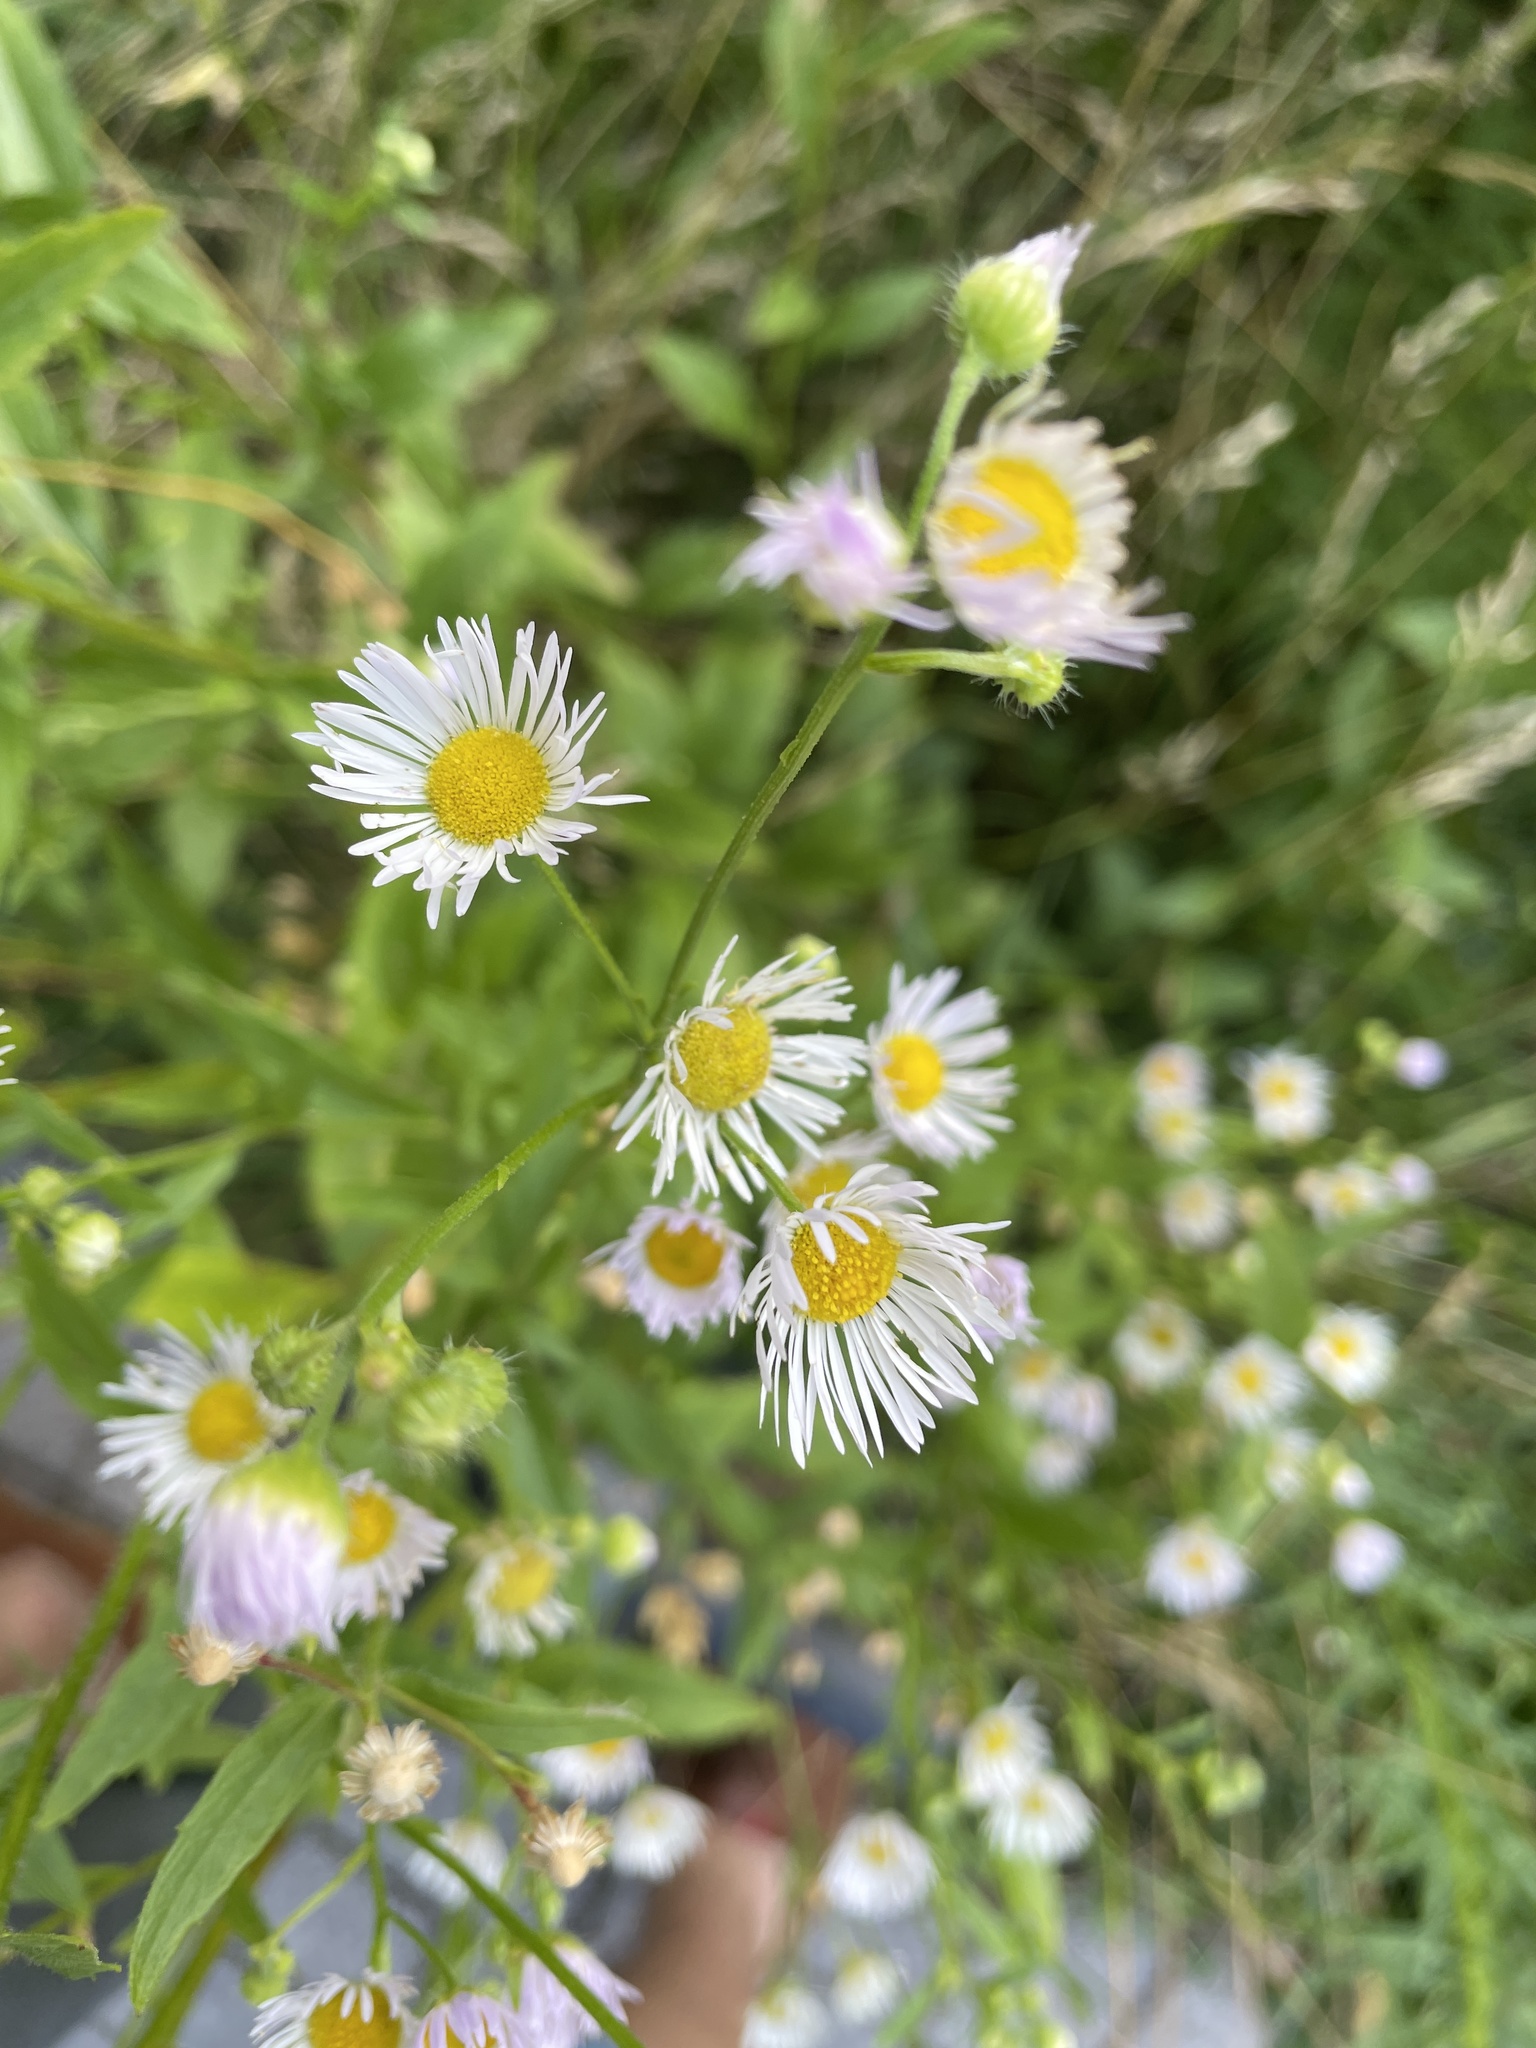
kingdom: Plantae
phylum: Tracheophyta
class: Magnoliopsida
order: Asterales
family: Asteraceae
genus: Erigeron
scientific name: Erigeron annuus
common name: Tall fleabane
